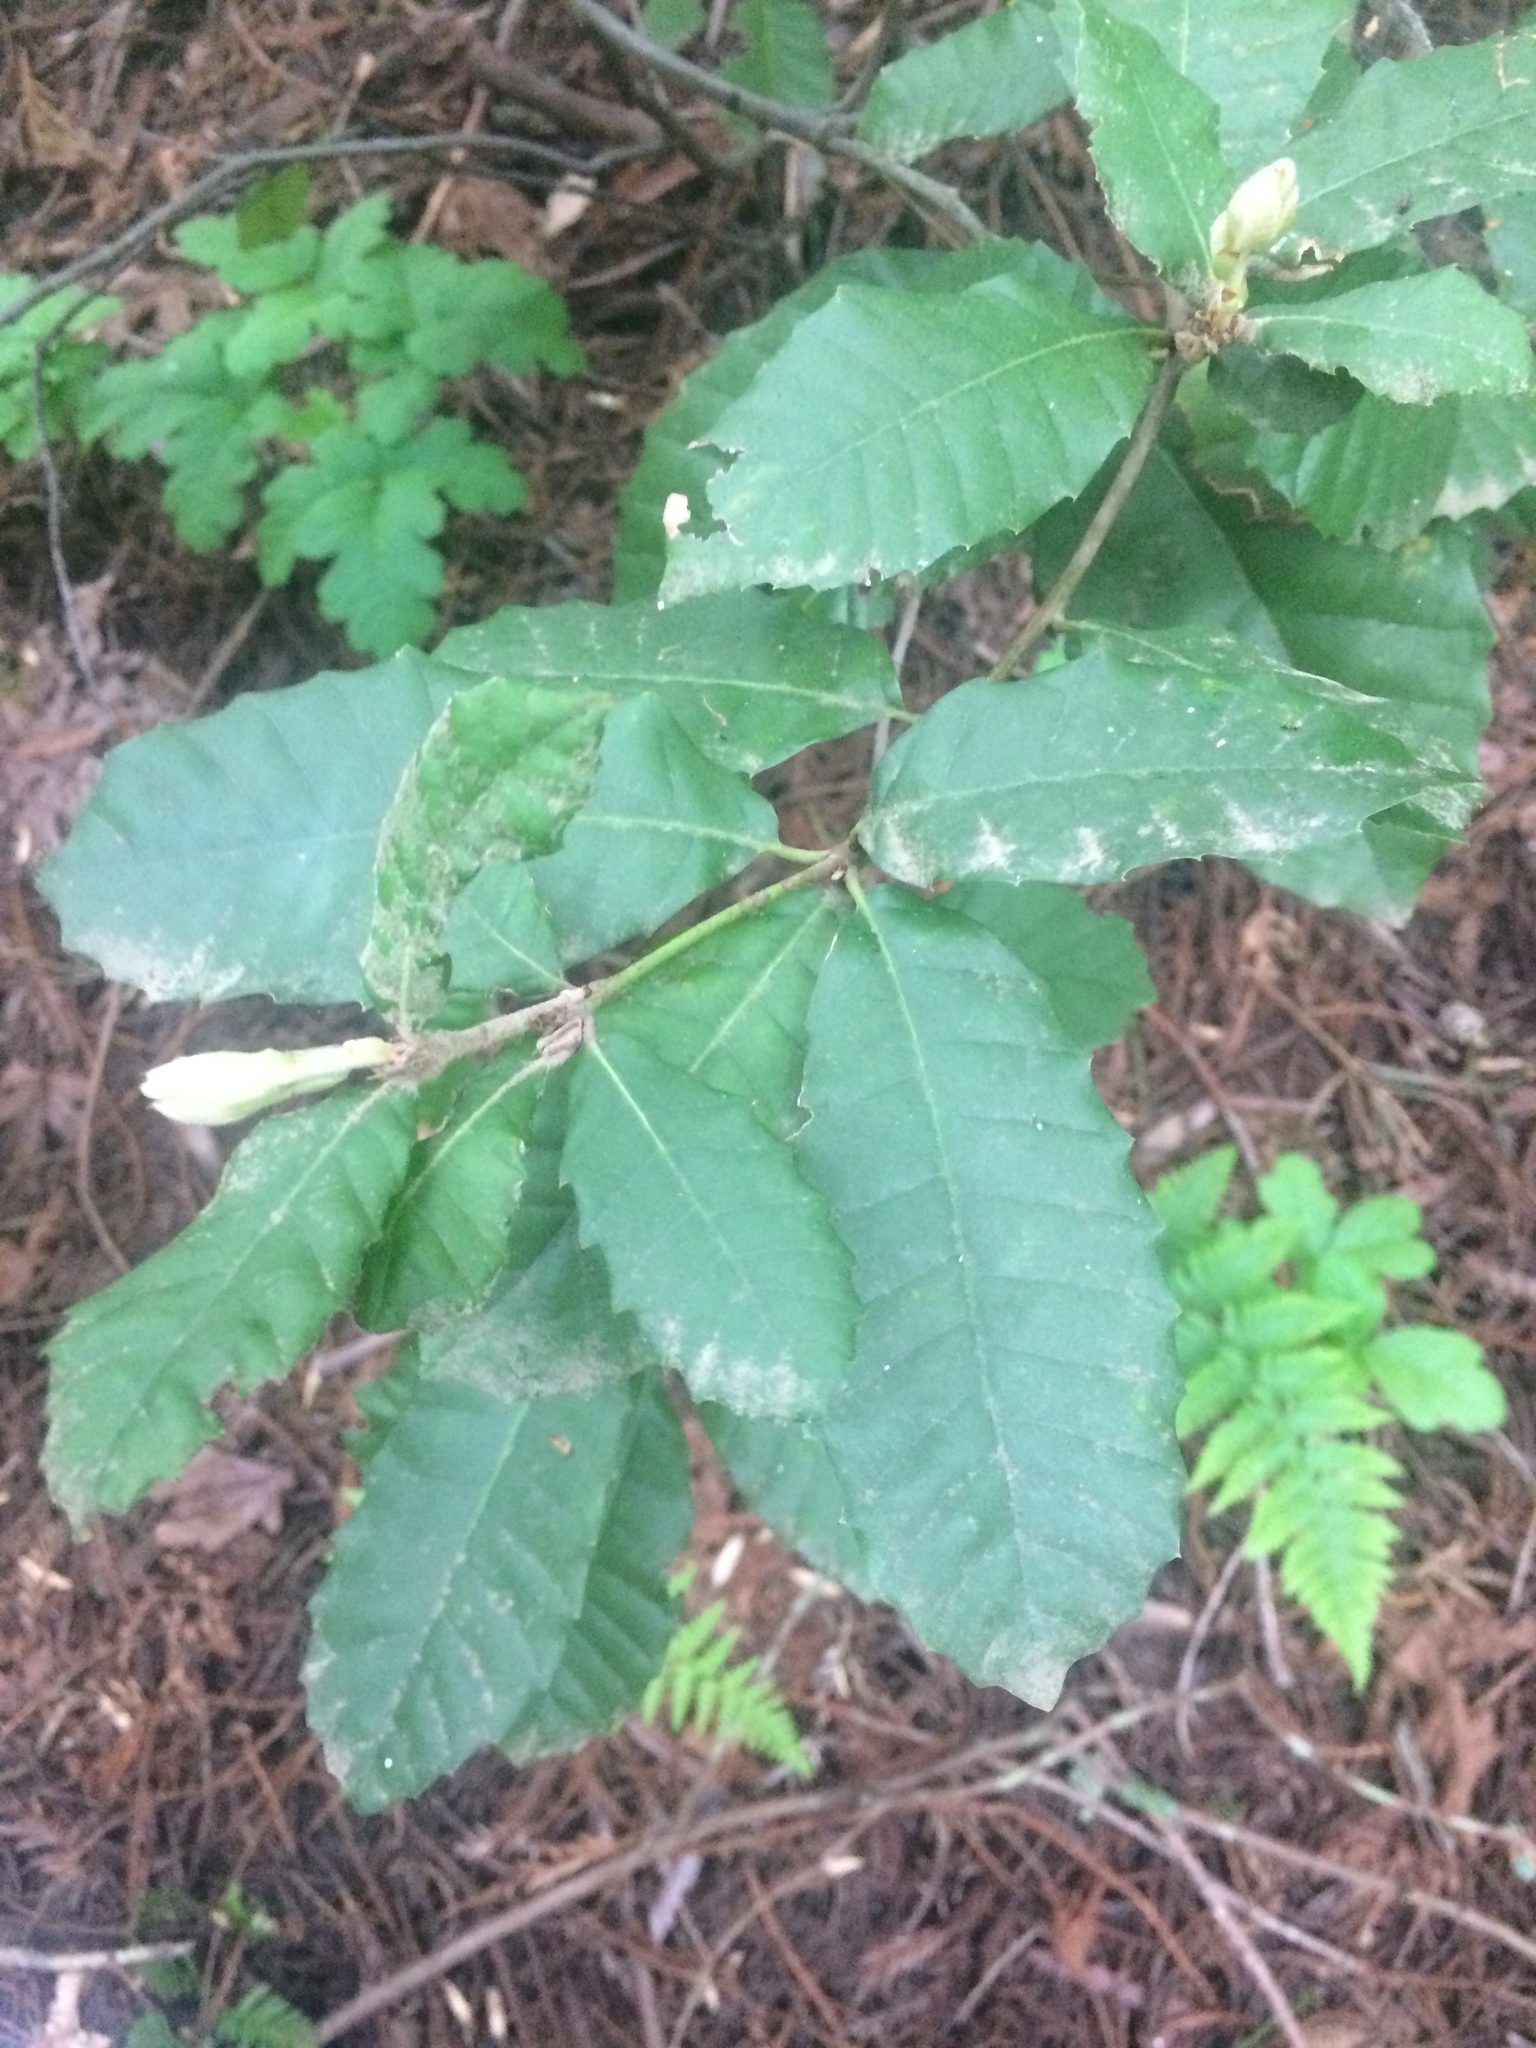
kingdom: Plantae
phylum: Tracheophyta
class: Magnoliopsida
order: Fagales
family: Fagaceae
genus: Notholithocarpus
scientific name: Notholithocarpus densiflorus
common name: Tan bark oak
